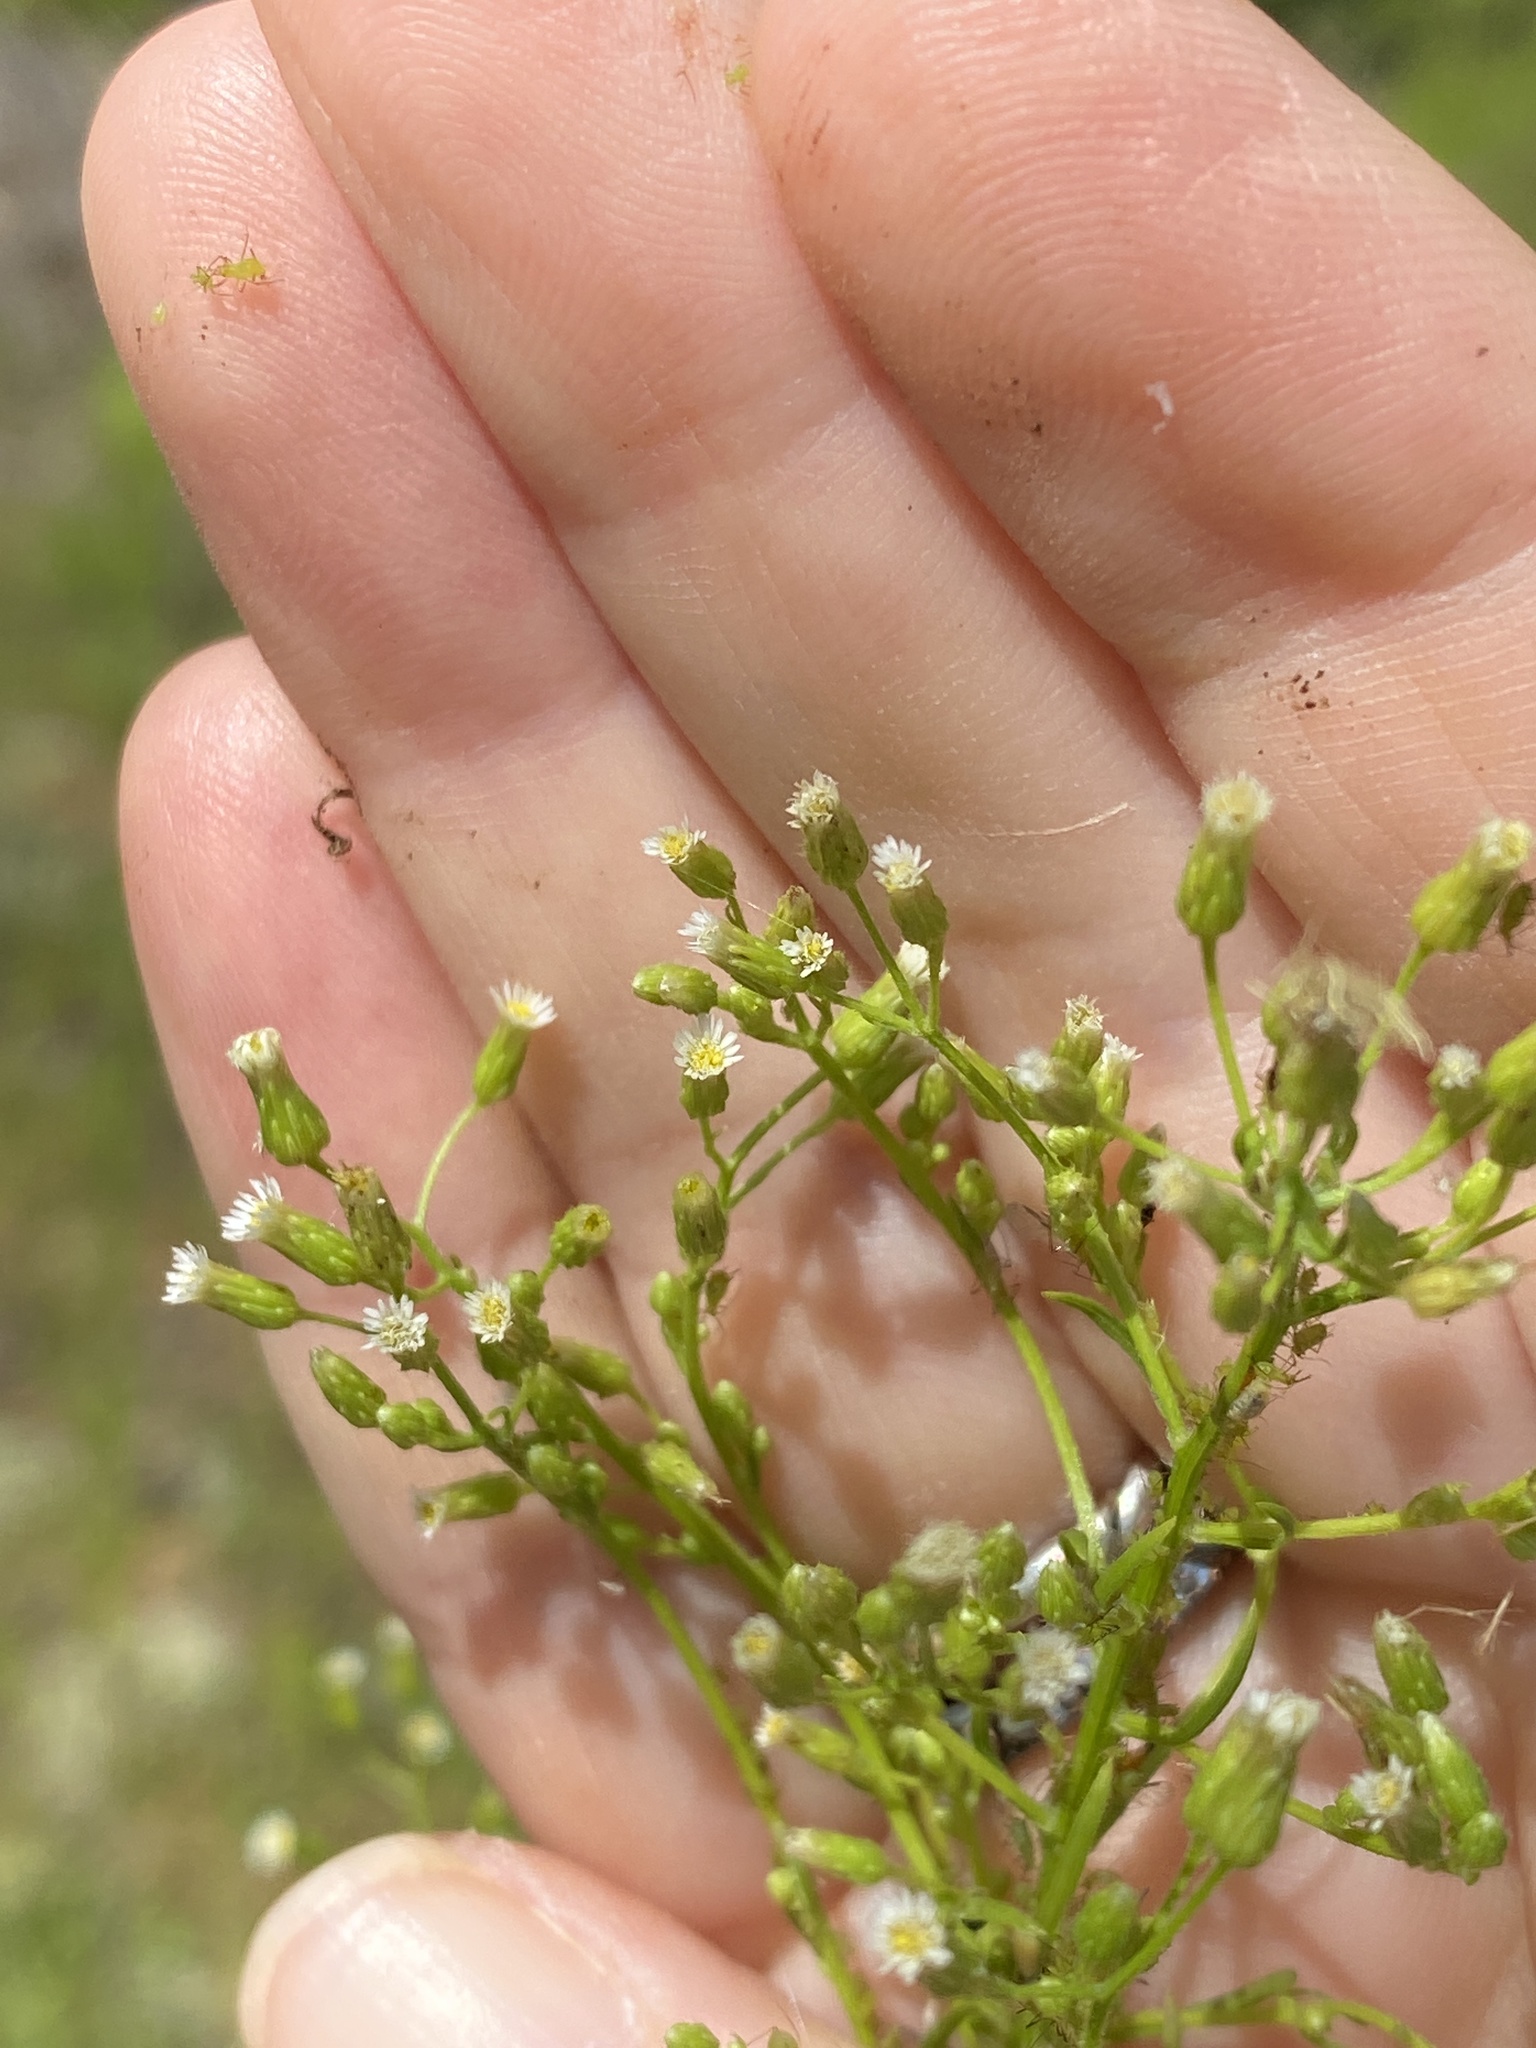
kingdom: Plantae
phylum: Tracheophyta
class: Magnoliopsida
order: Asterales
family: Asteraceae
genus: Erigeron
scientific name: Erigeron canadensis
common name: Canadian fleabane
